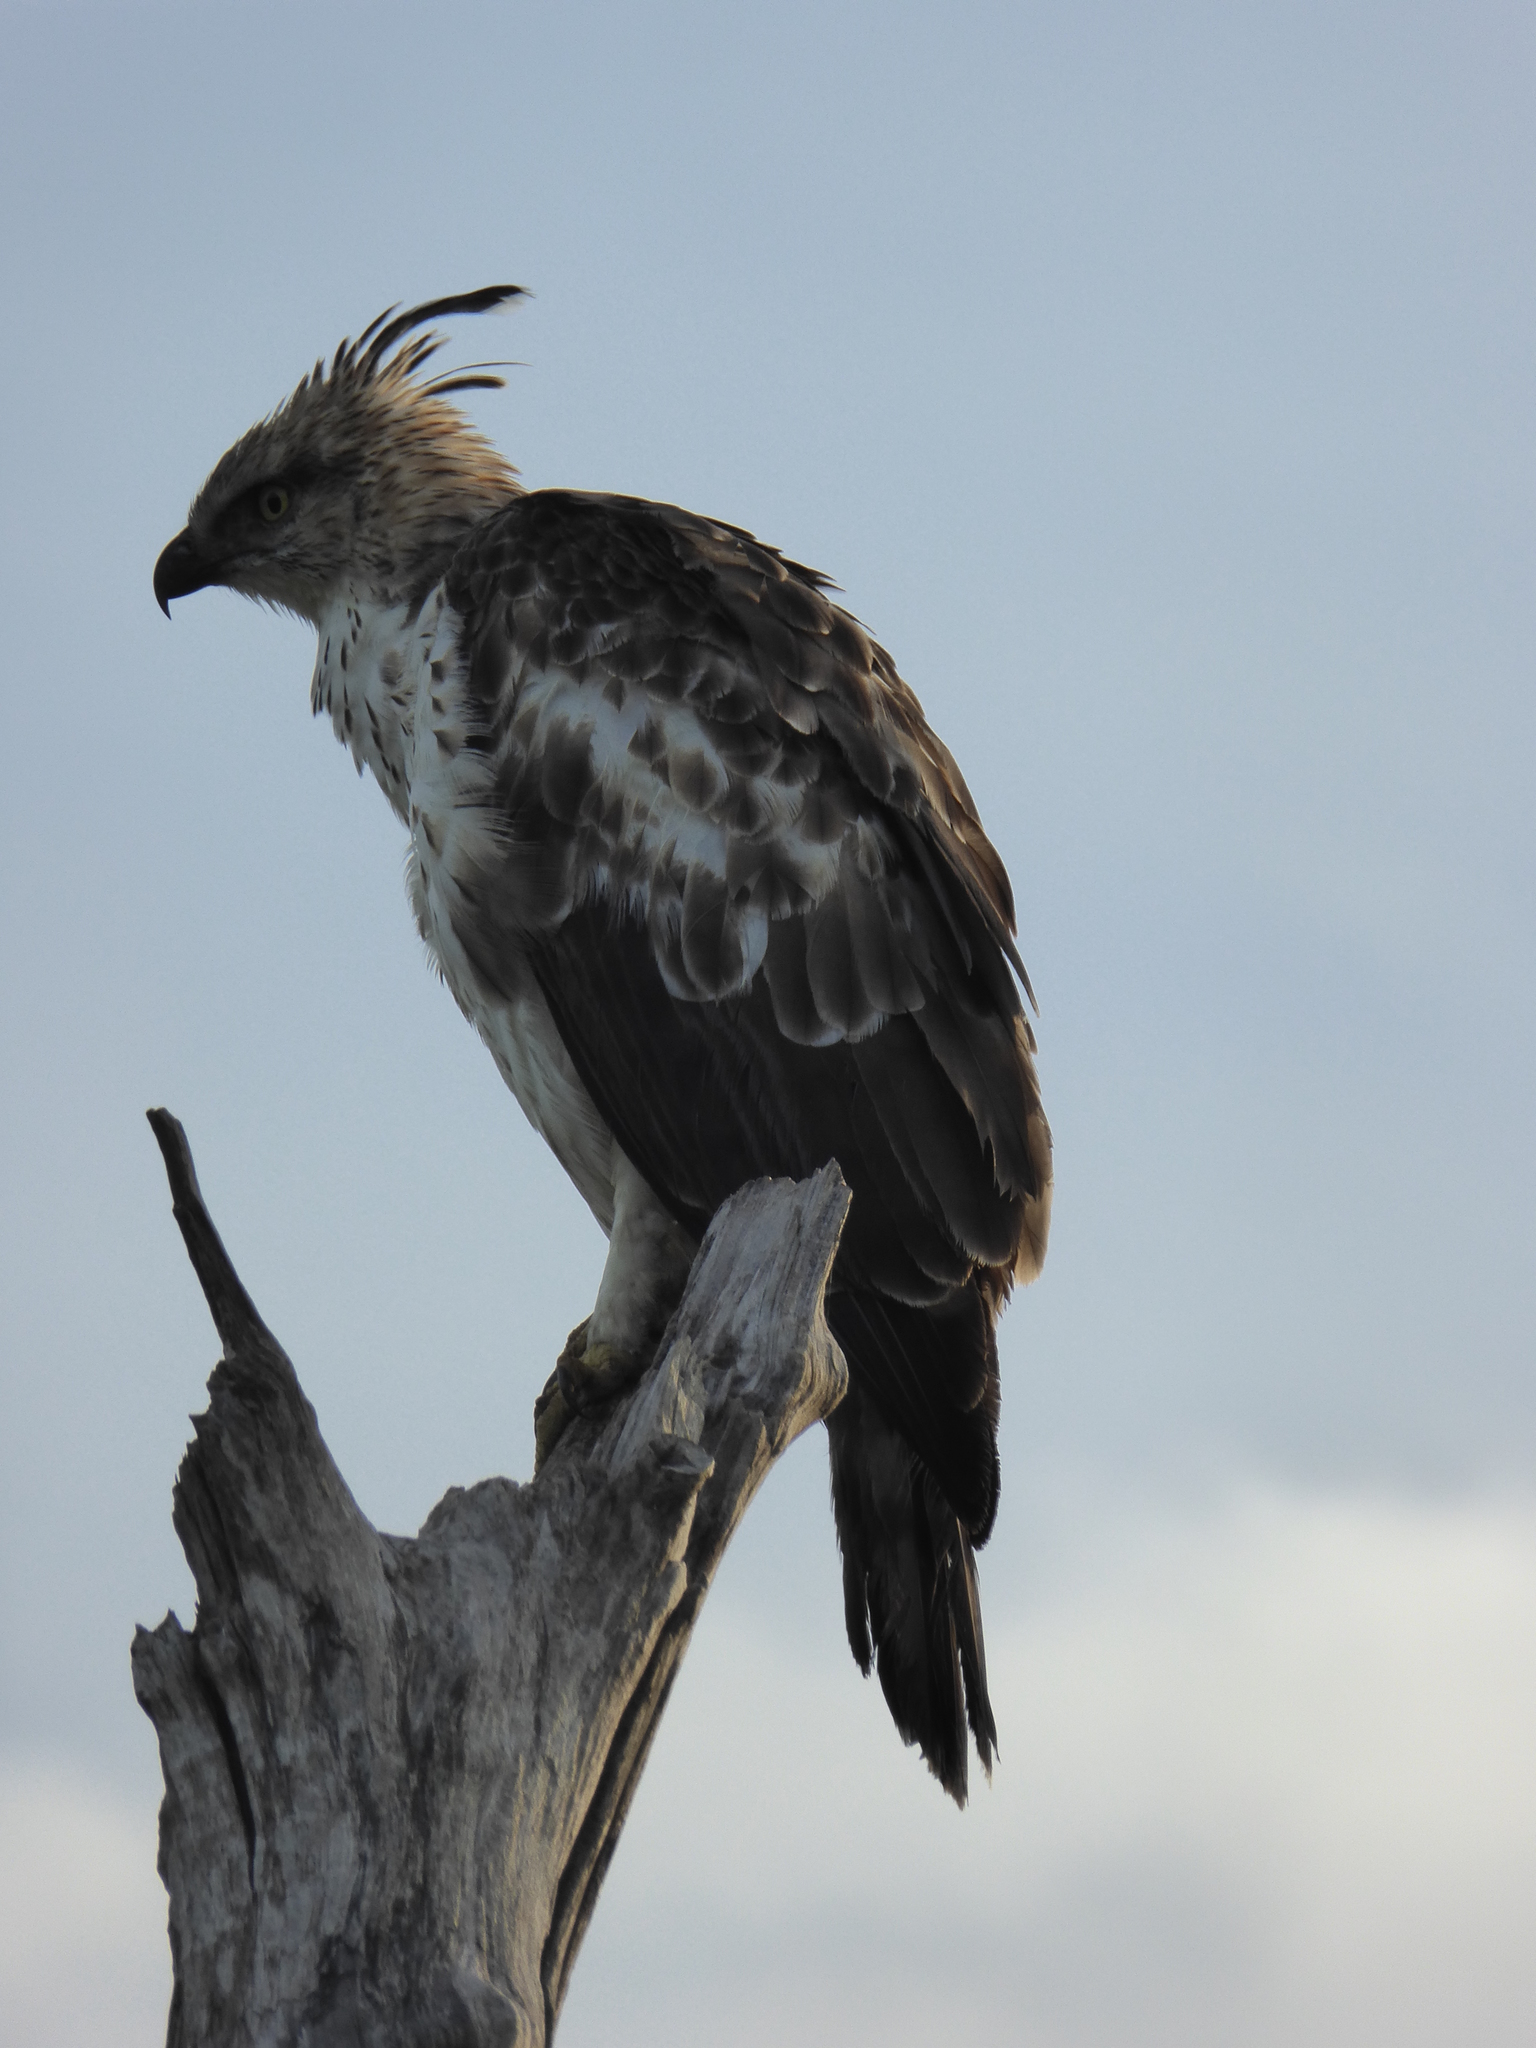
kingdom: Animalia
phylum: Chordata
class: Aves
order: Accipitriformes
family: Accipitridae
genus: Nisaetus
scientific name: Nisaetus cirrhatus
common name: Changeable hawk-eagle
